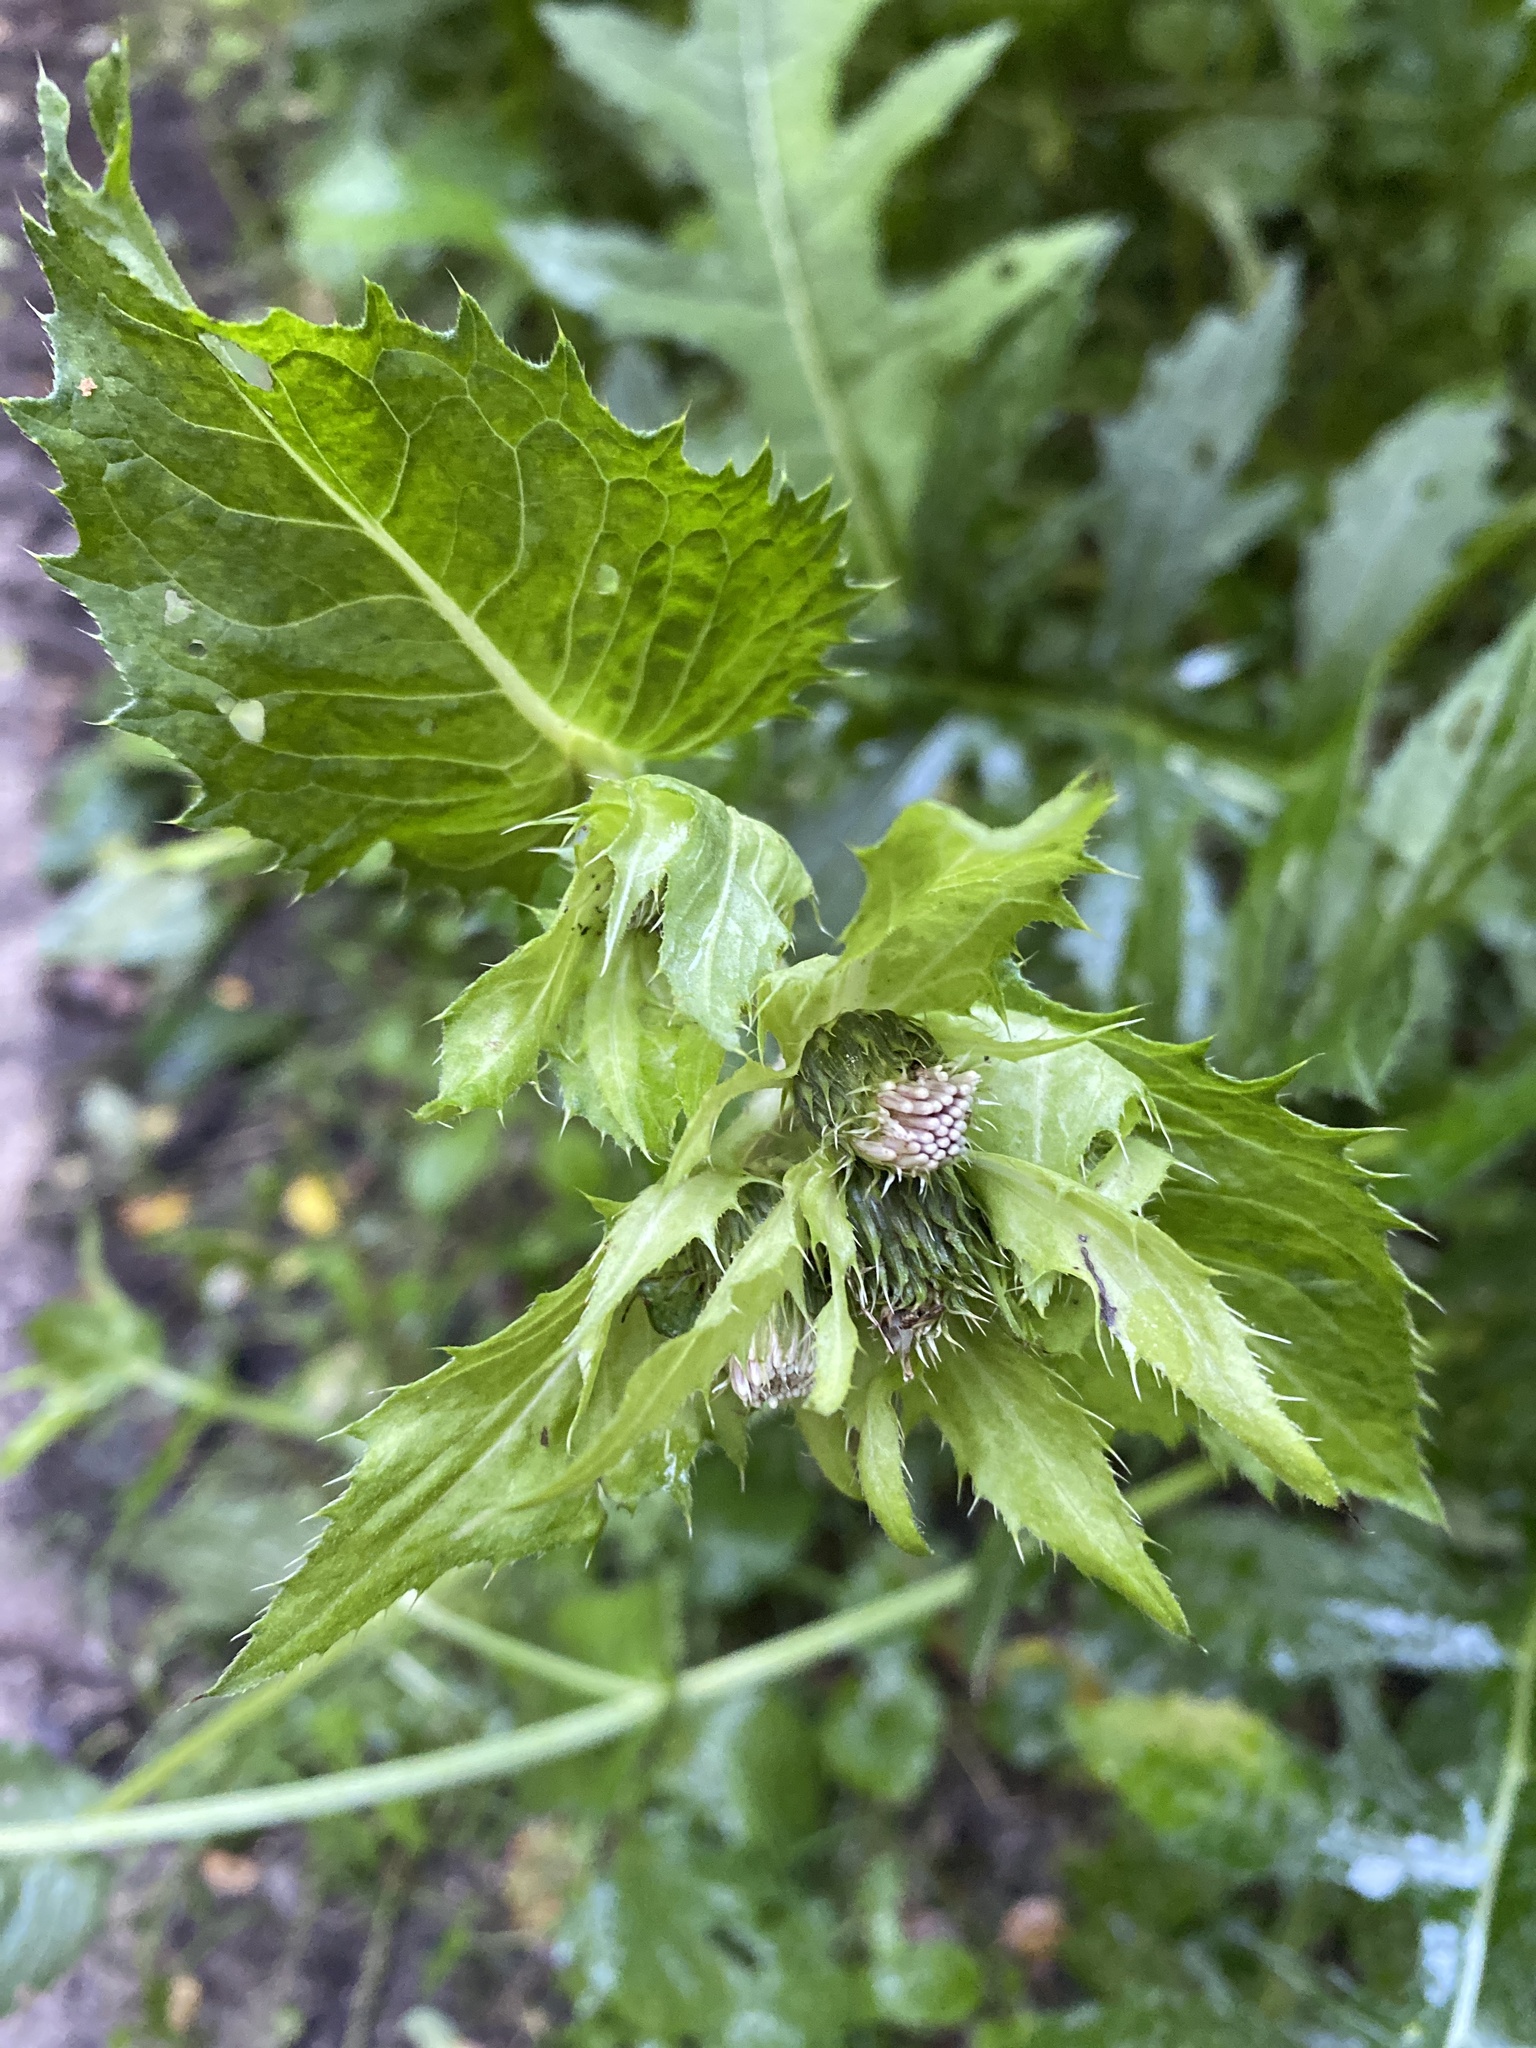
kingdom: Plantae
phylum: Tracheophyta
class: Magnoliopsida
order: Asterales
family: Asteraceae
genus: Cirsium
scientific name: Cirsium oleraceum
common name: Cabbage thistle
